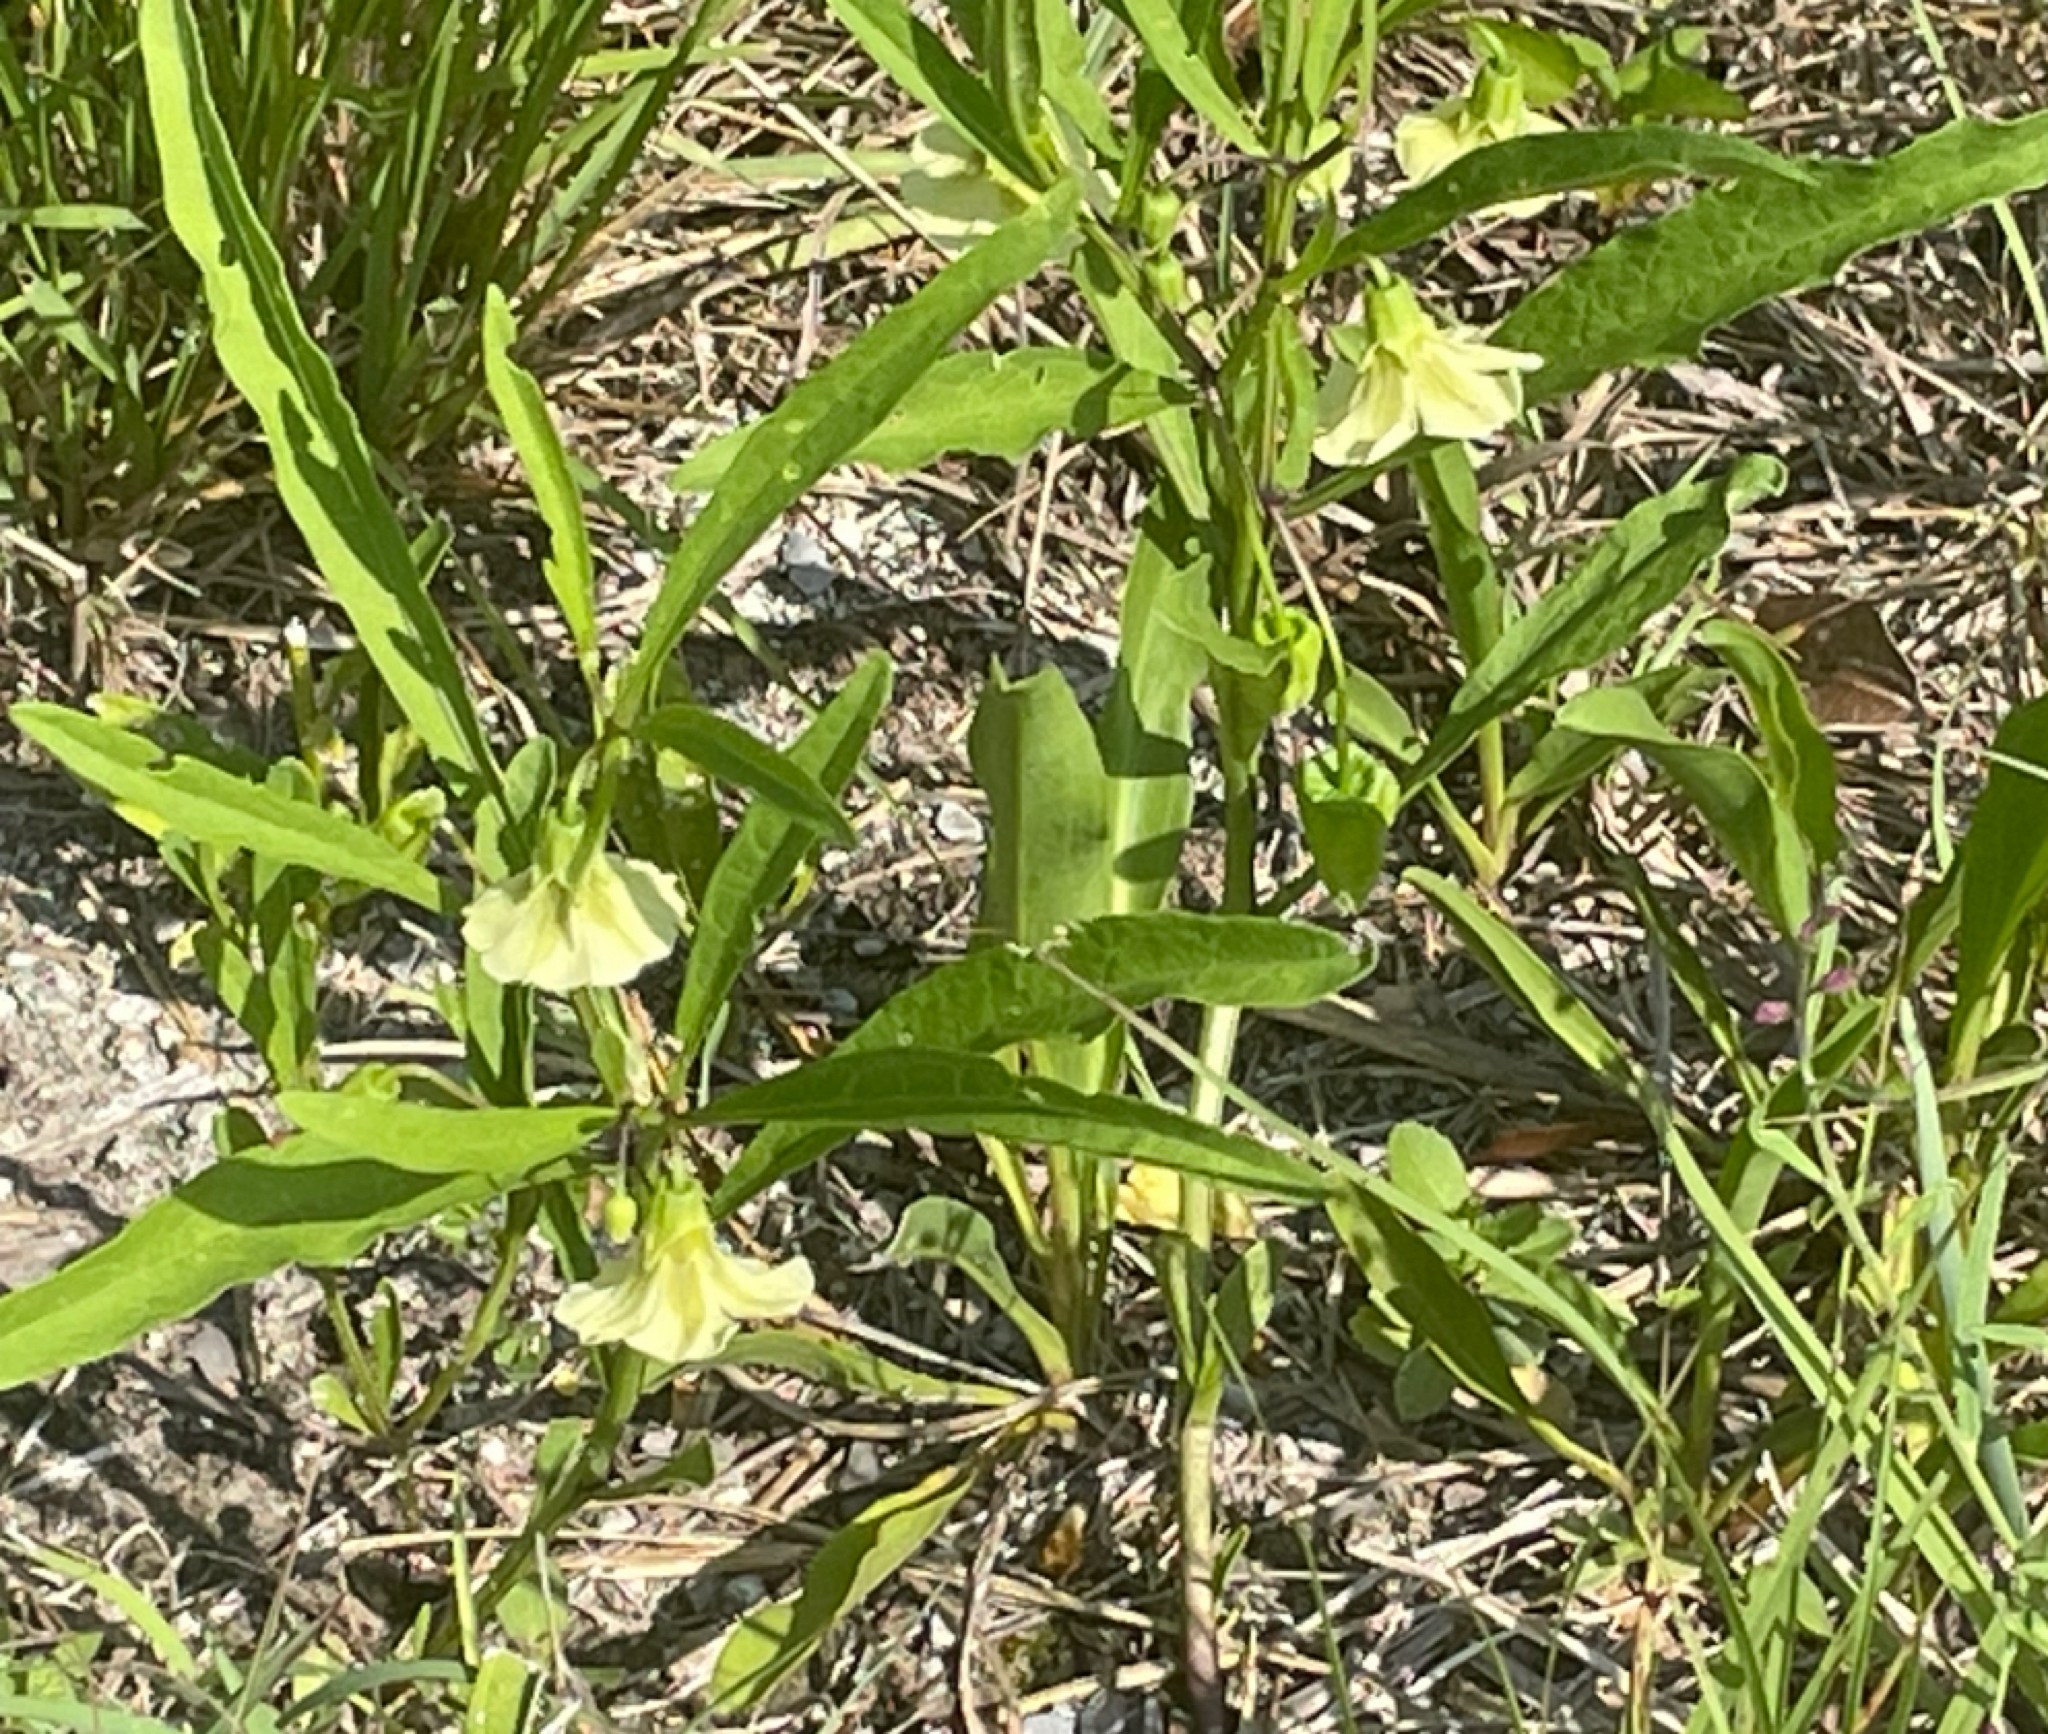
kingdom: Plantae
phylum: Tracheophyta
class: Magnoliopsida
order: Solanales
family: Solanaceae
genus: Physalis
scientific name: Physalis elliottii
